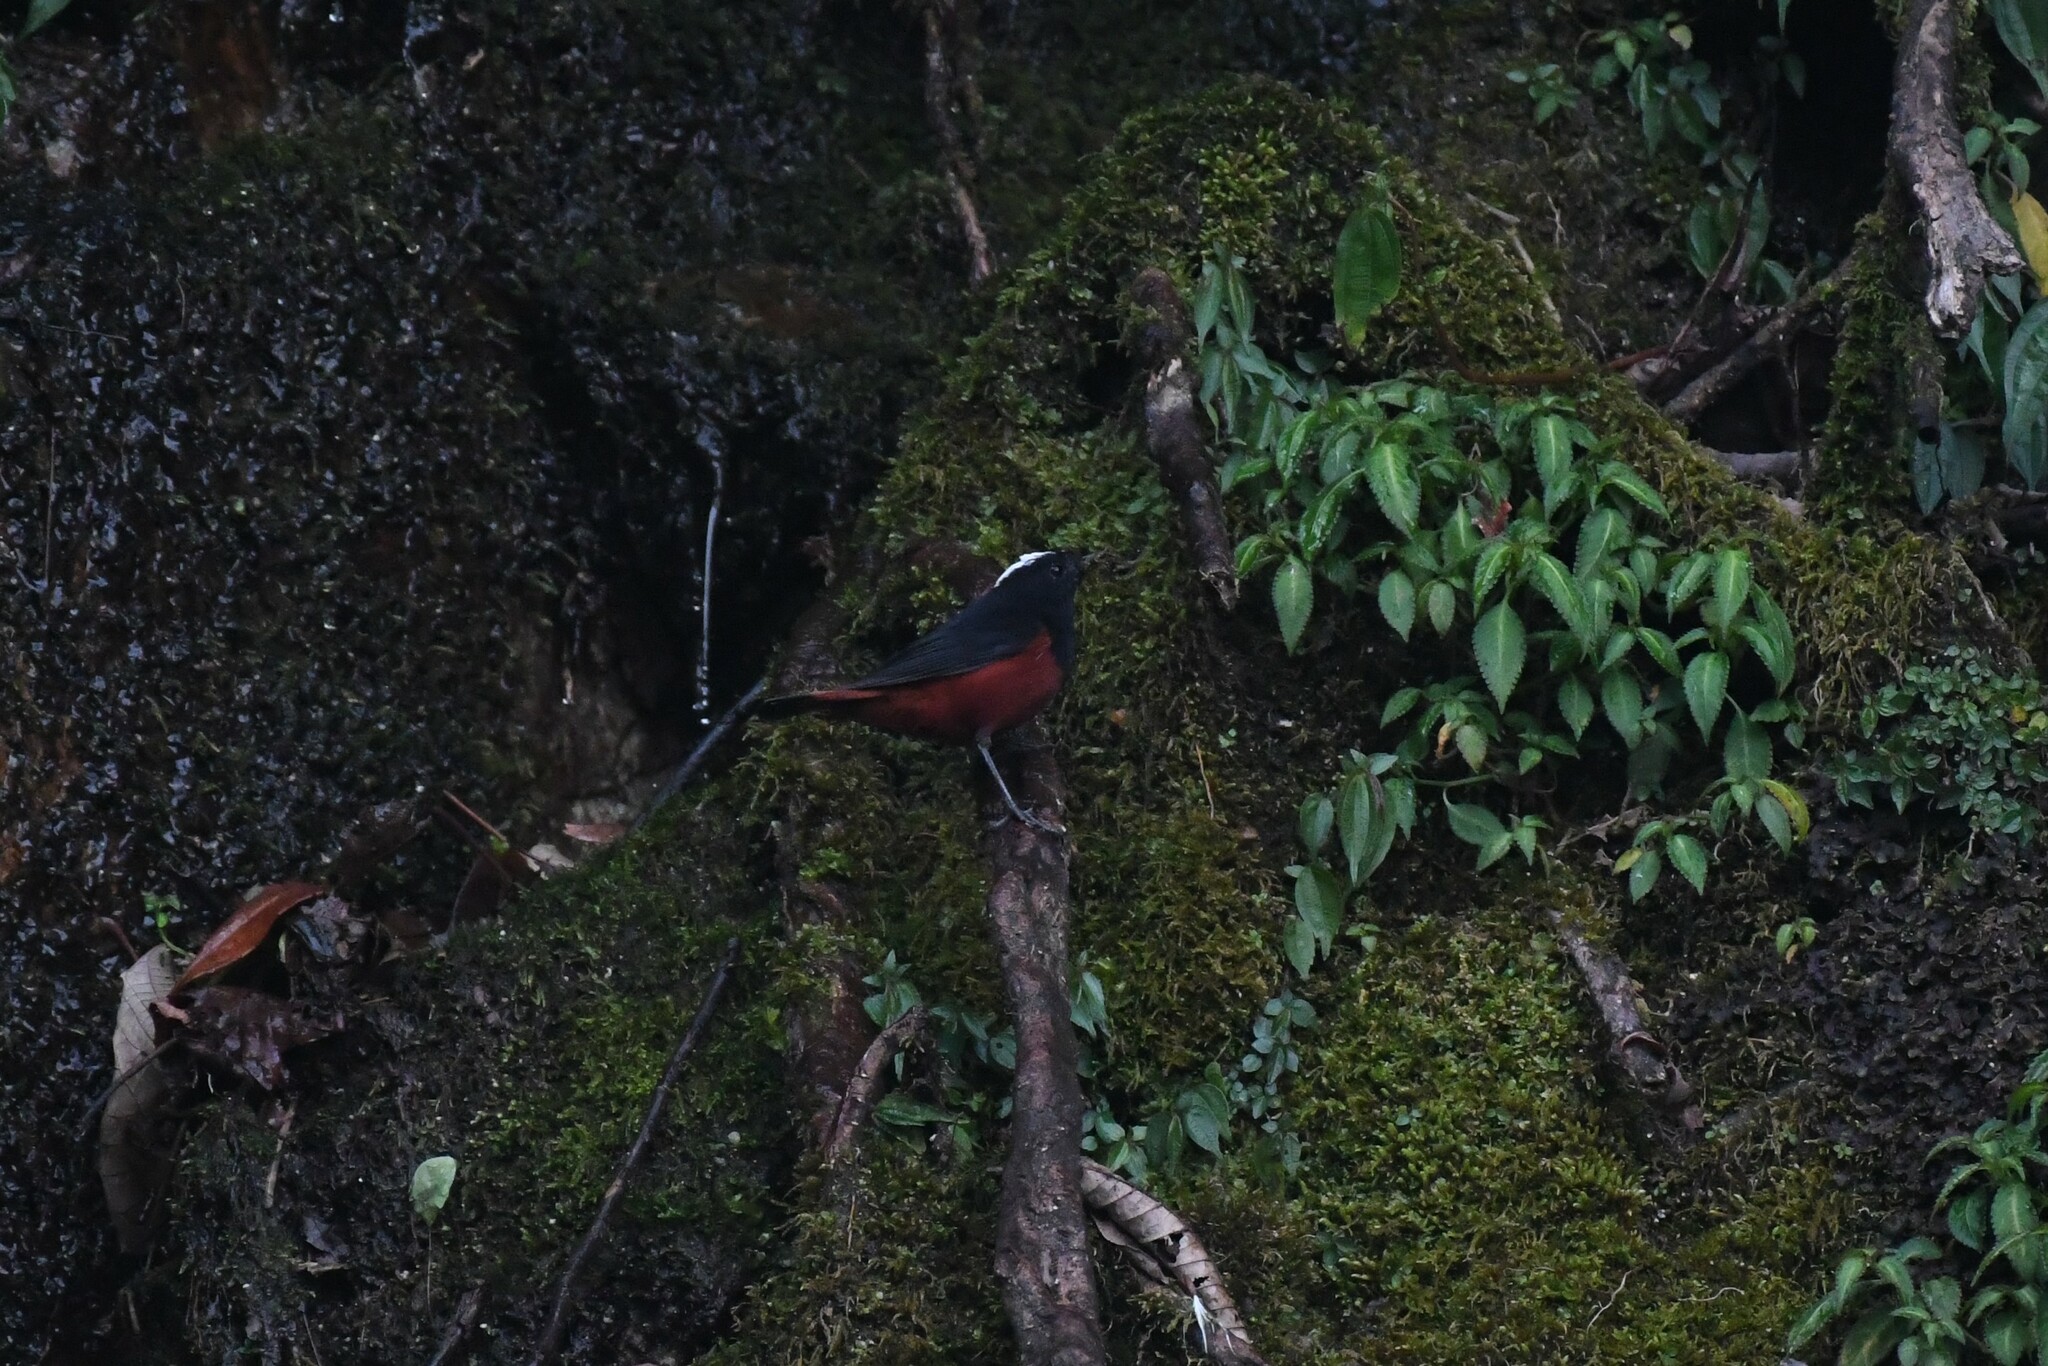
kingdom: Animalia
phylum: Chordata
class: Aves
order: Passeriformes
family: Muscicapidae
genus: Chaimarrornis
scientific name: Chaimarrornis leucocephalus
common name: White-capped redstart
